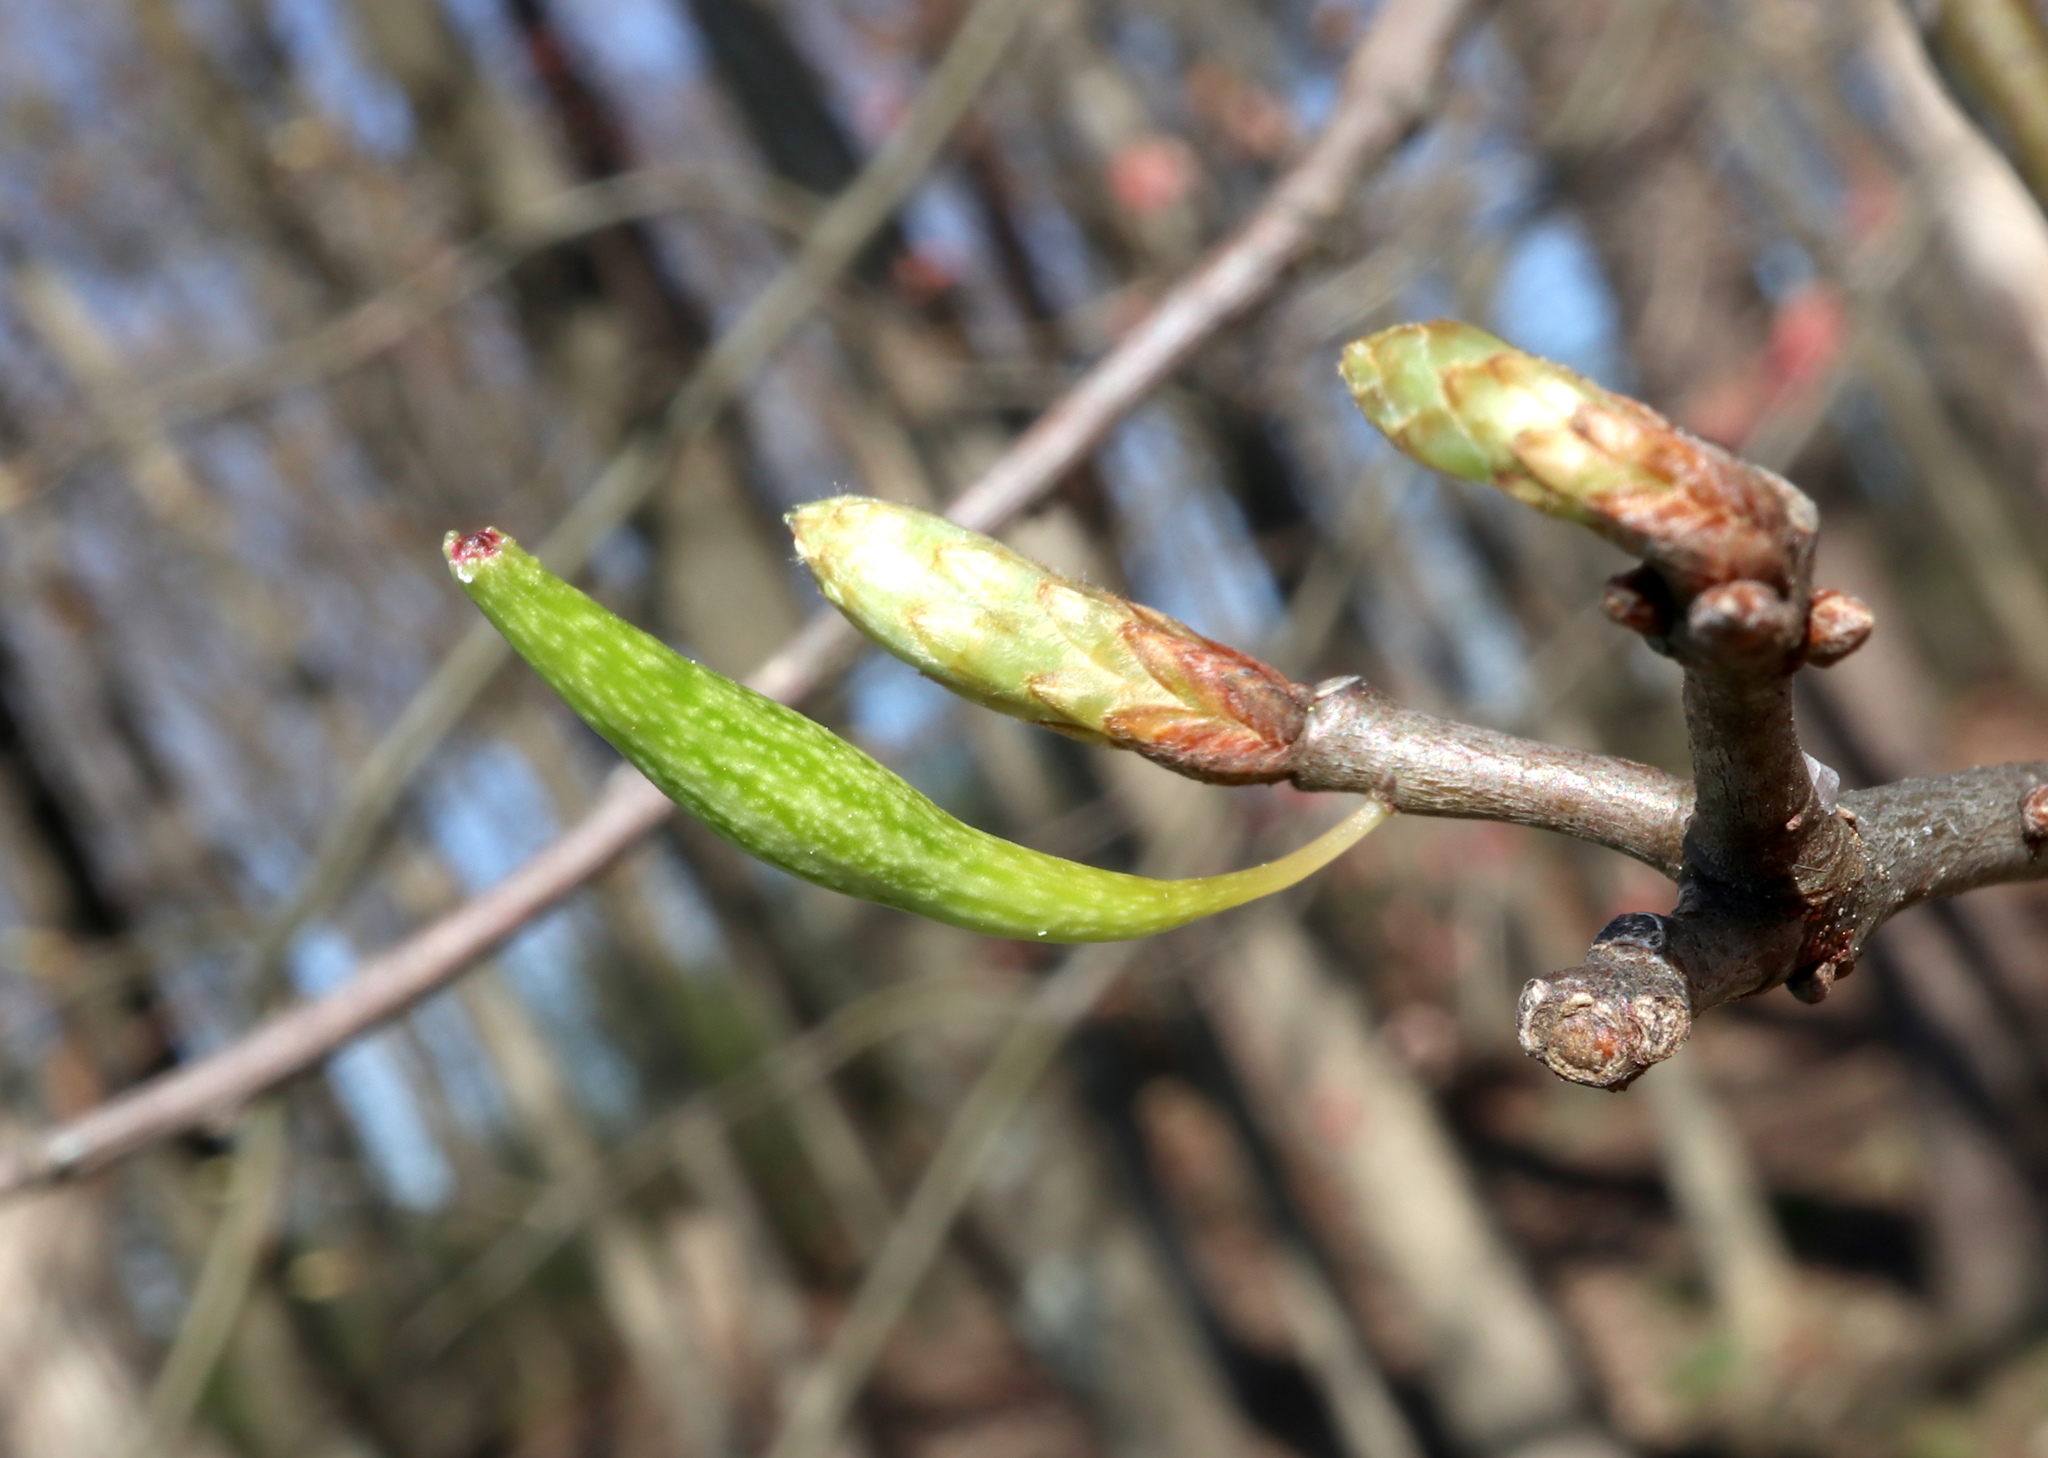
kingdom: Animalia
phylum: Arthropoda
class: Insecta
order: Hymenoptera
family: Cynipidae
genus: Callirhytis
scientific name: Callirhytis
